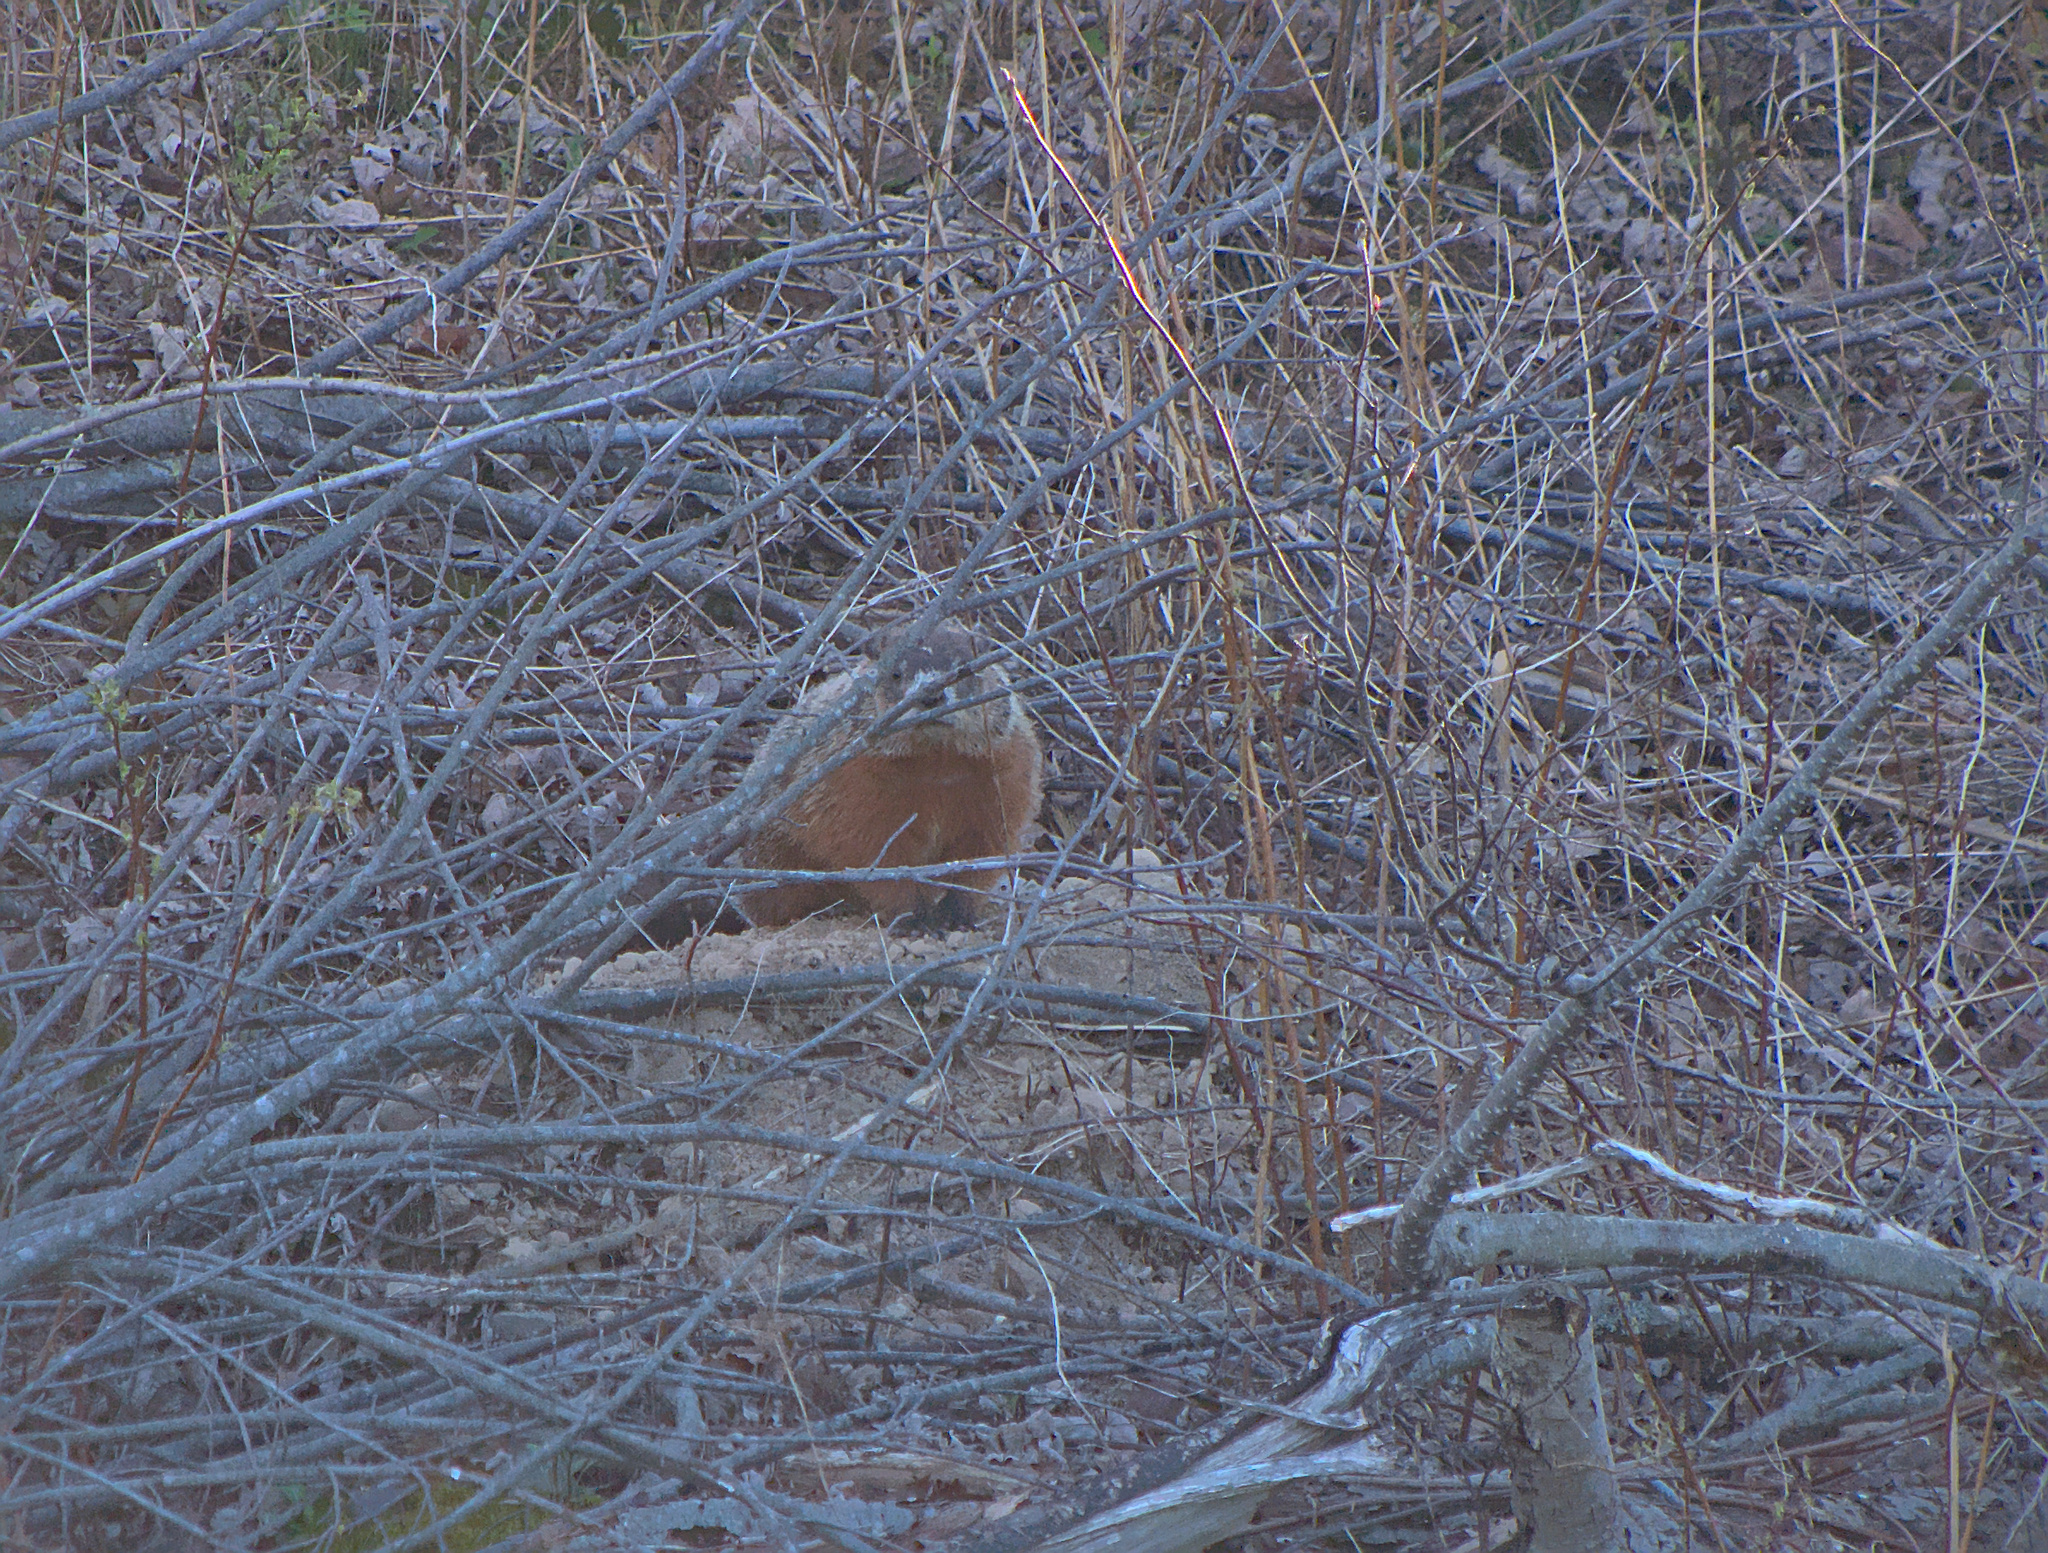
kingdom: Animalia
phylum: Chordata
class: Mammalia
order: Rodentia
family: Sciuridae
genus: Marmota
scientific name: Marmota monax
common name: Groundhog
